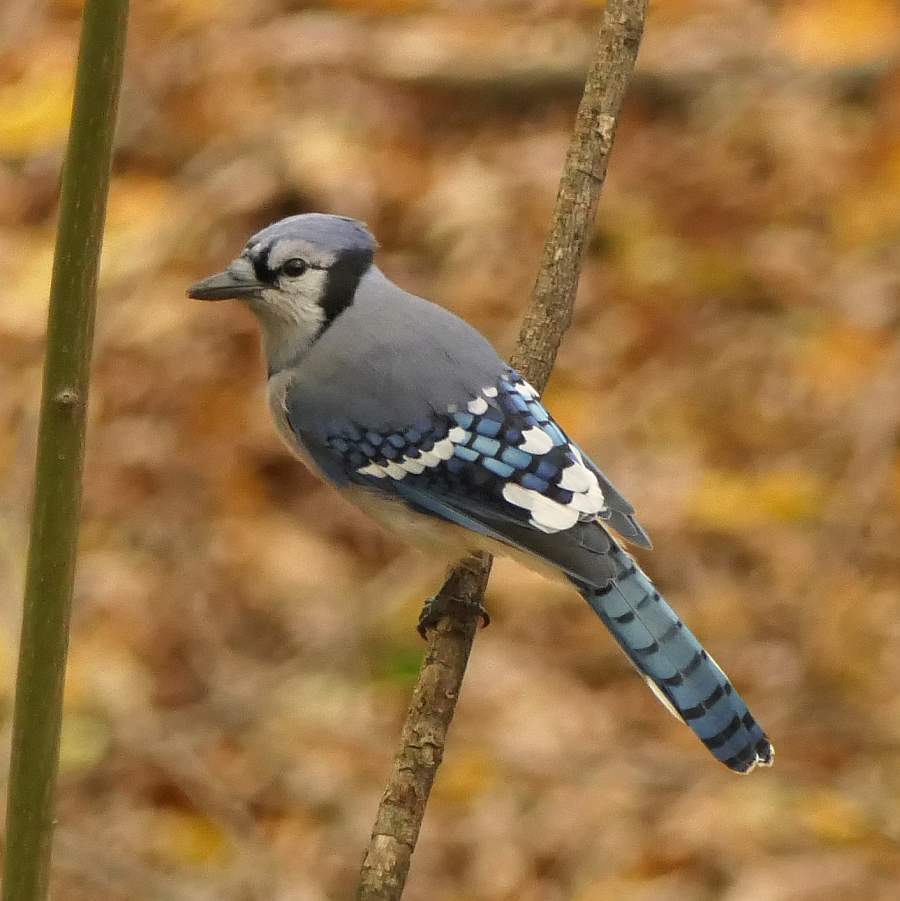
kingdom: Animalia
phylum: Chordata
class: Aves
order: Passeriformes
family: Corvidae
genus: Cyanocitta
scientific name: Cyanocitta cristata
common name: Blue jay
